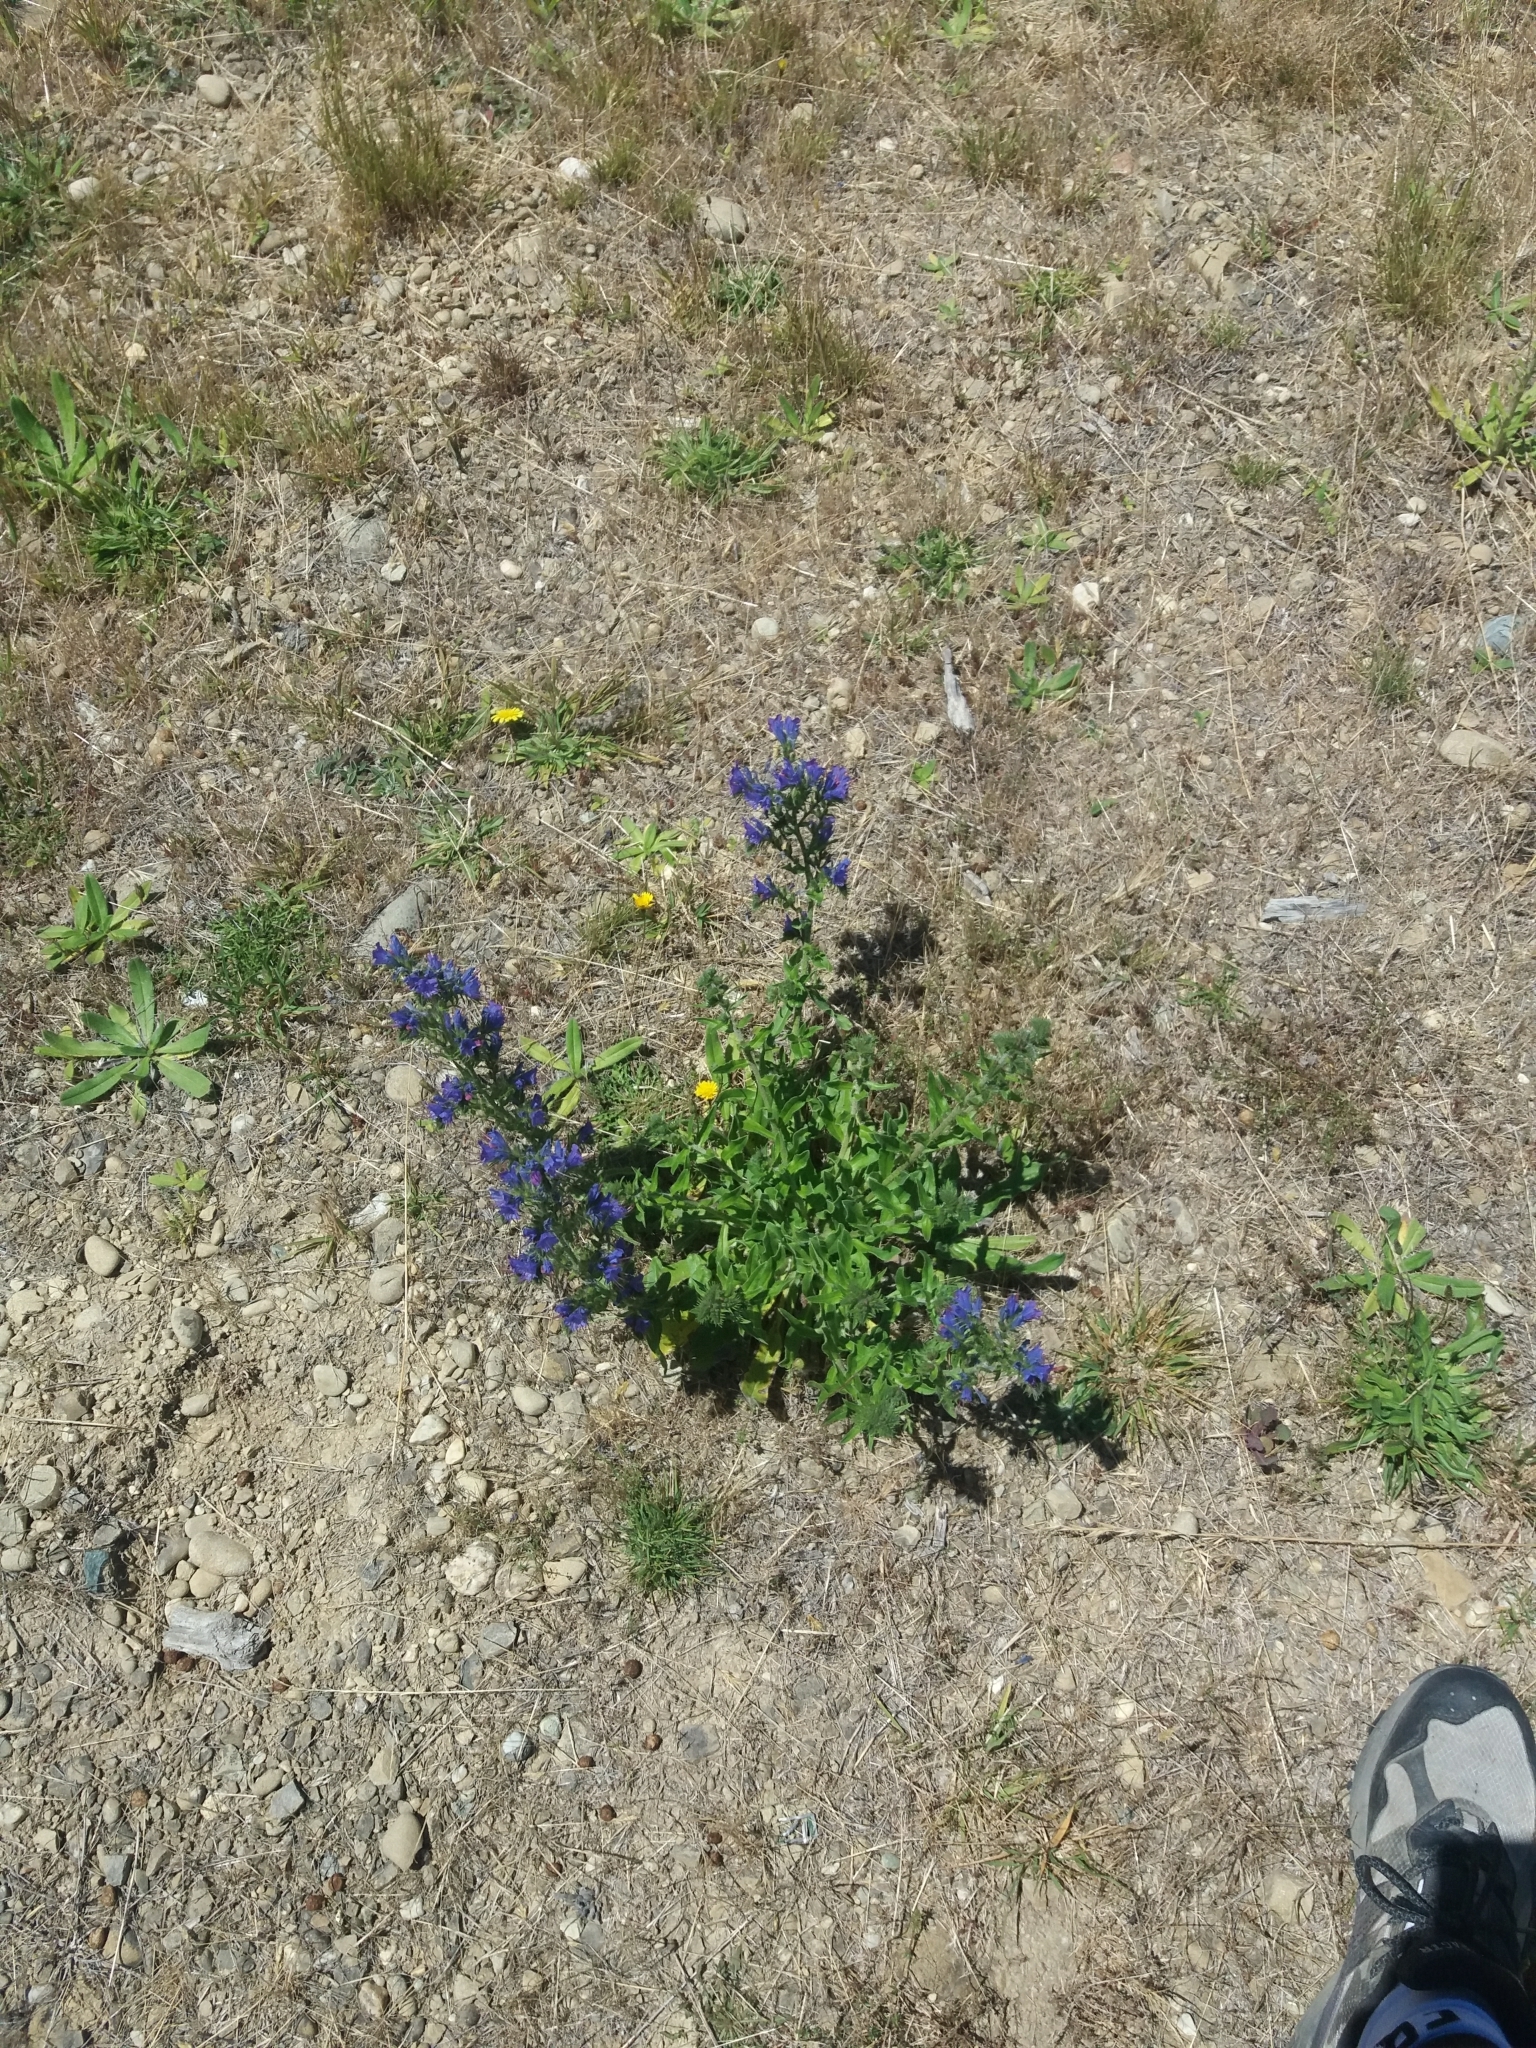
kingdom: Plantae
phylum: Tracheophyta
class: Magnoliopsida
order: Boraginales
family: Boraginaceae
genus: Echium
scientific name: Echium vulgare
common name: Common viper's bugloss
